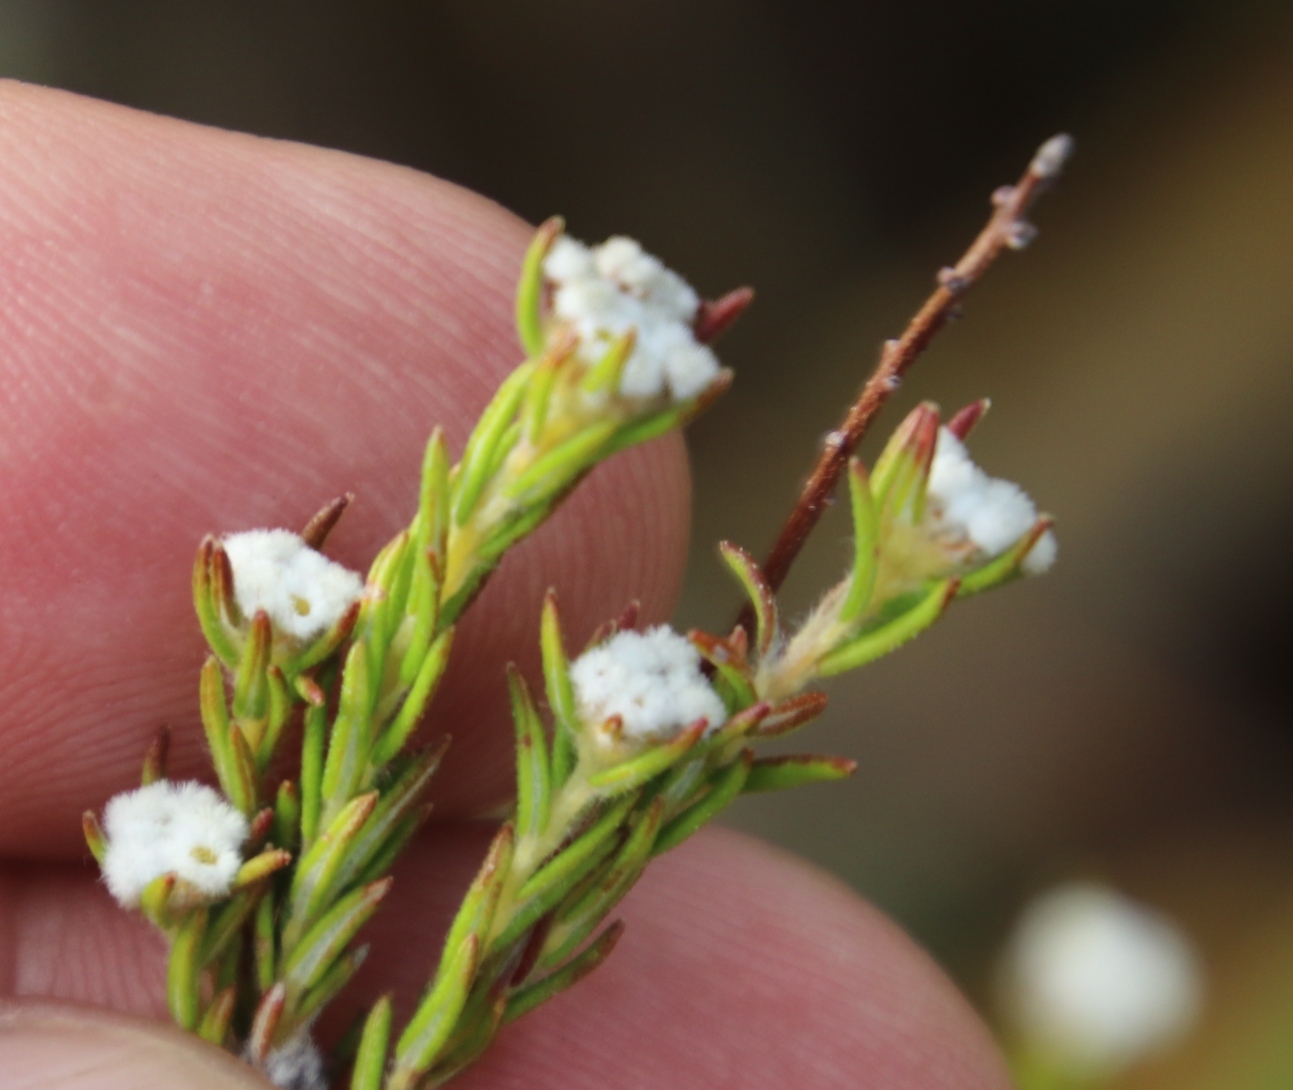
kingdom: Plantae
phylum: Tracheophyta
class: Magnoliopsida
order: Rosales
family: Rhamnaceae
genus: Phylica
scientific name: Phylica disticha
